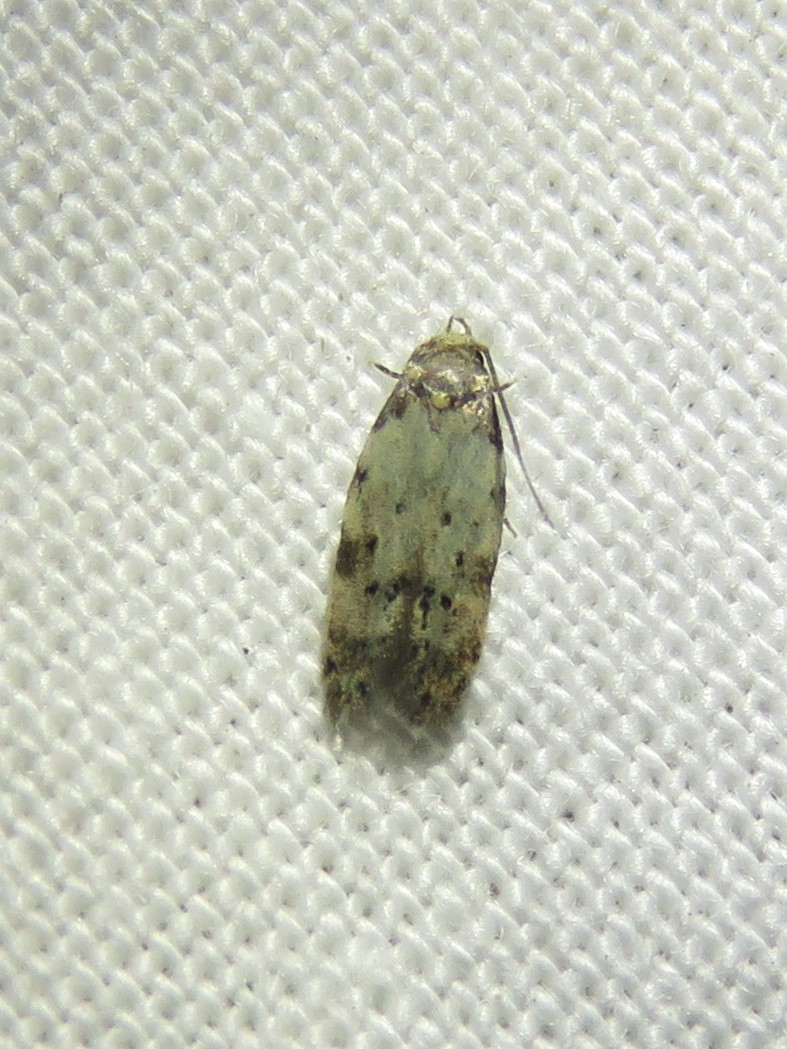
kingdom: Animalia
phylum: Arthropoda
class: Insecta
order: Lepidoptera
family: Autostichidae
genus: Taygete
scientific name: Taygete attributella
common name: Triangle-marked twirler moth
